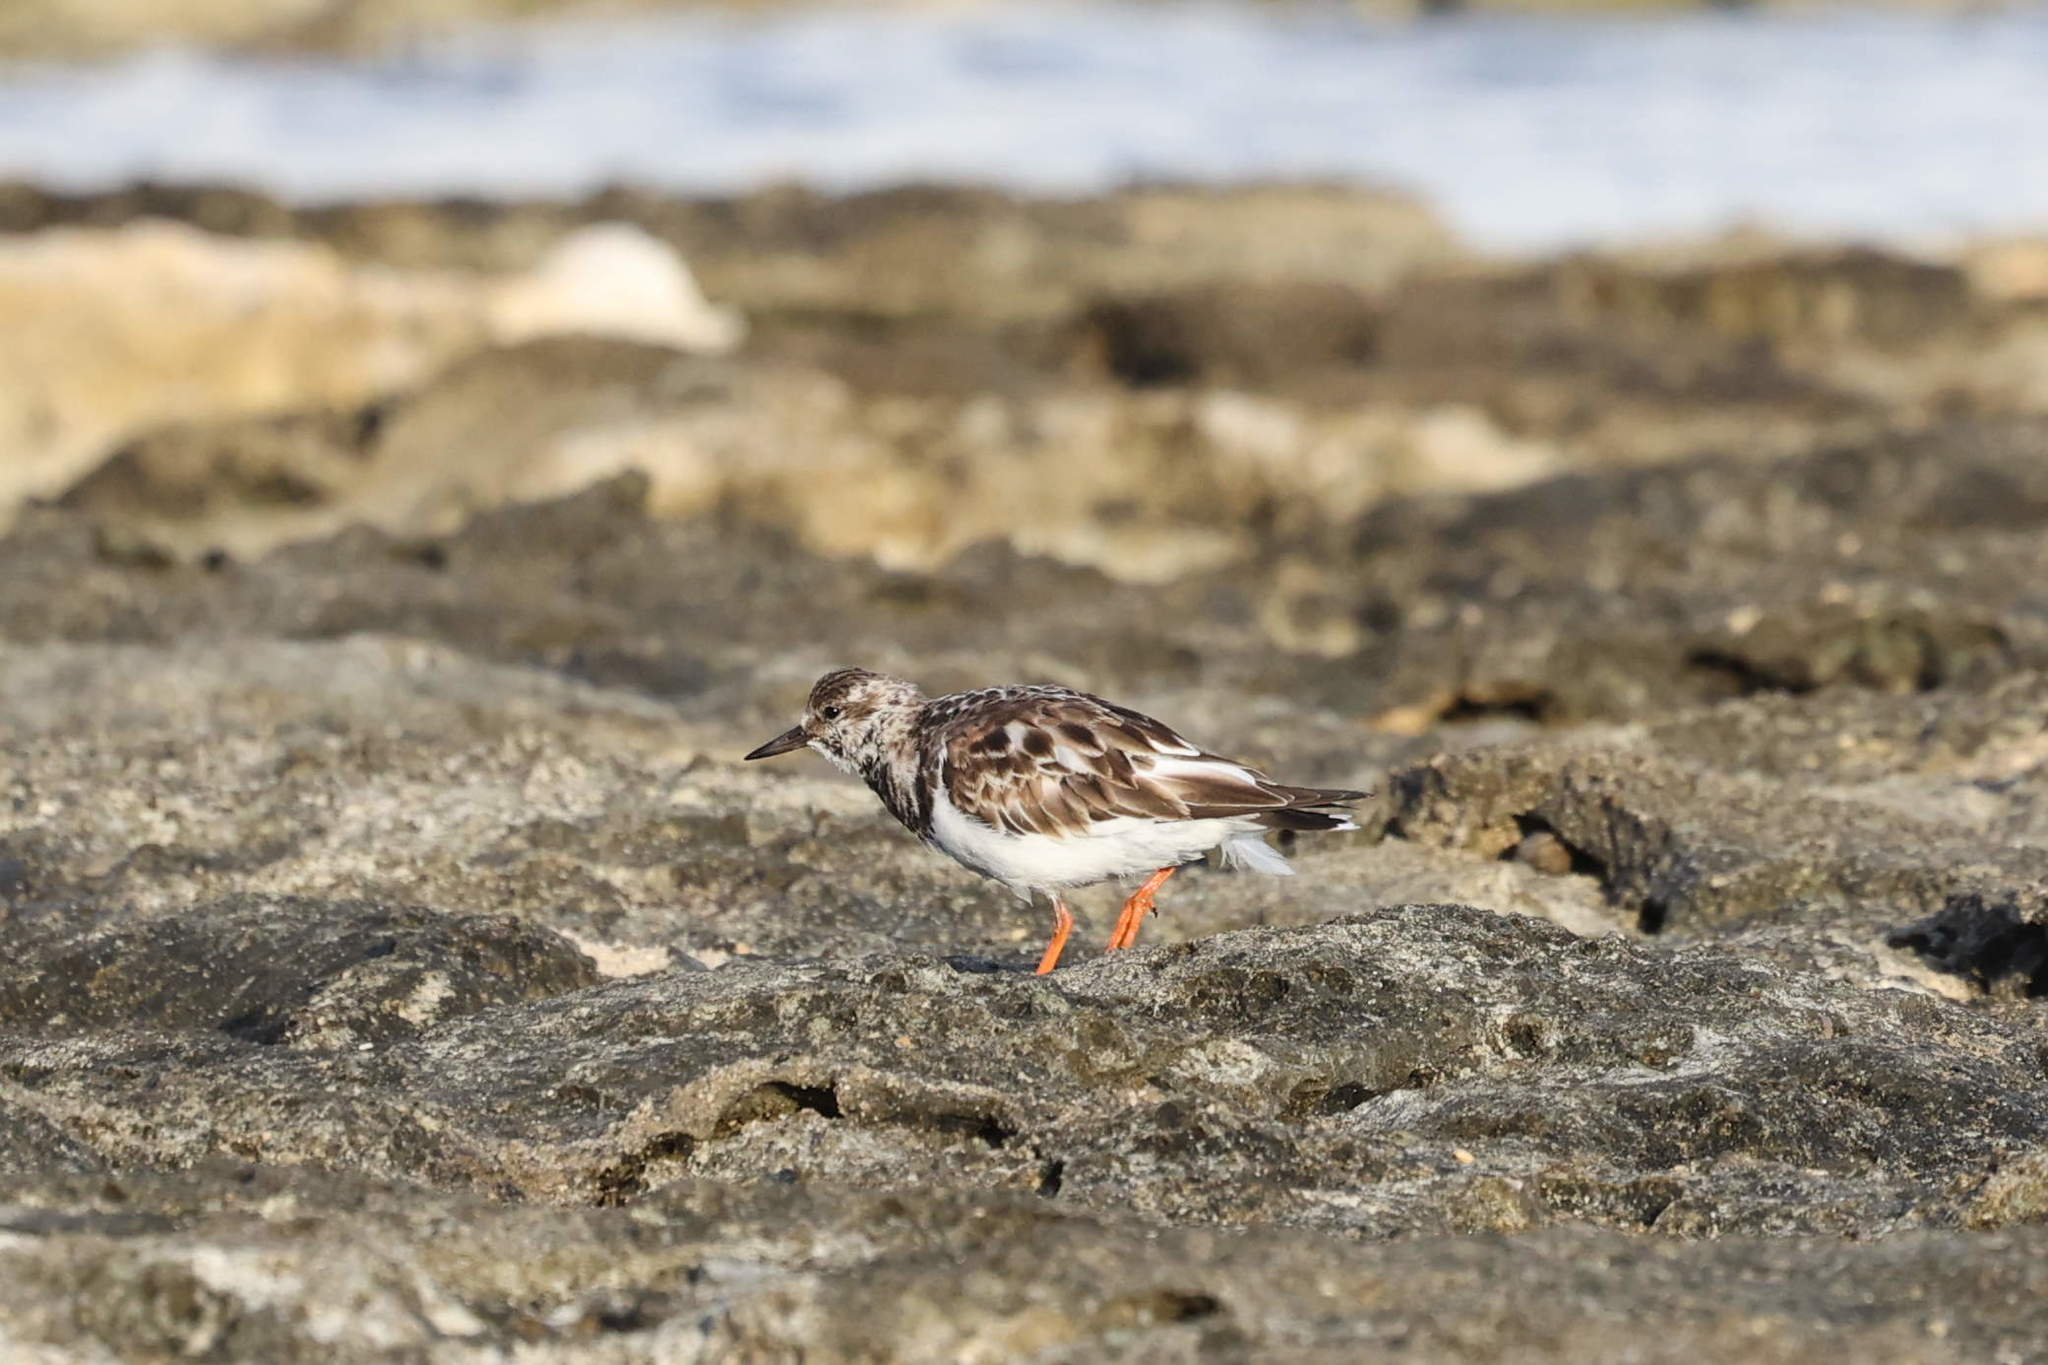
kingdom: Animalia
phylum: Chordata
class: Aves
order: Charadriiformes
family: Scolopacidae
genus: Arenaria
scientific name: Arenaria interpres
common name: Ruddy turnstone
